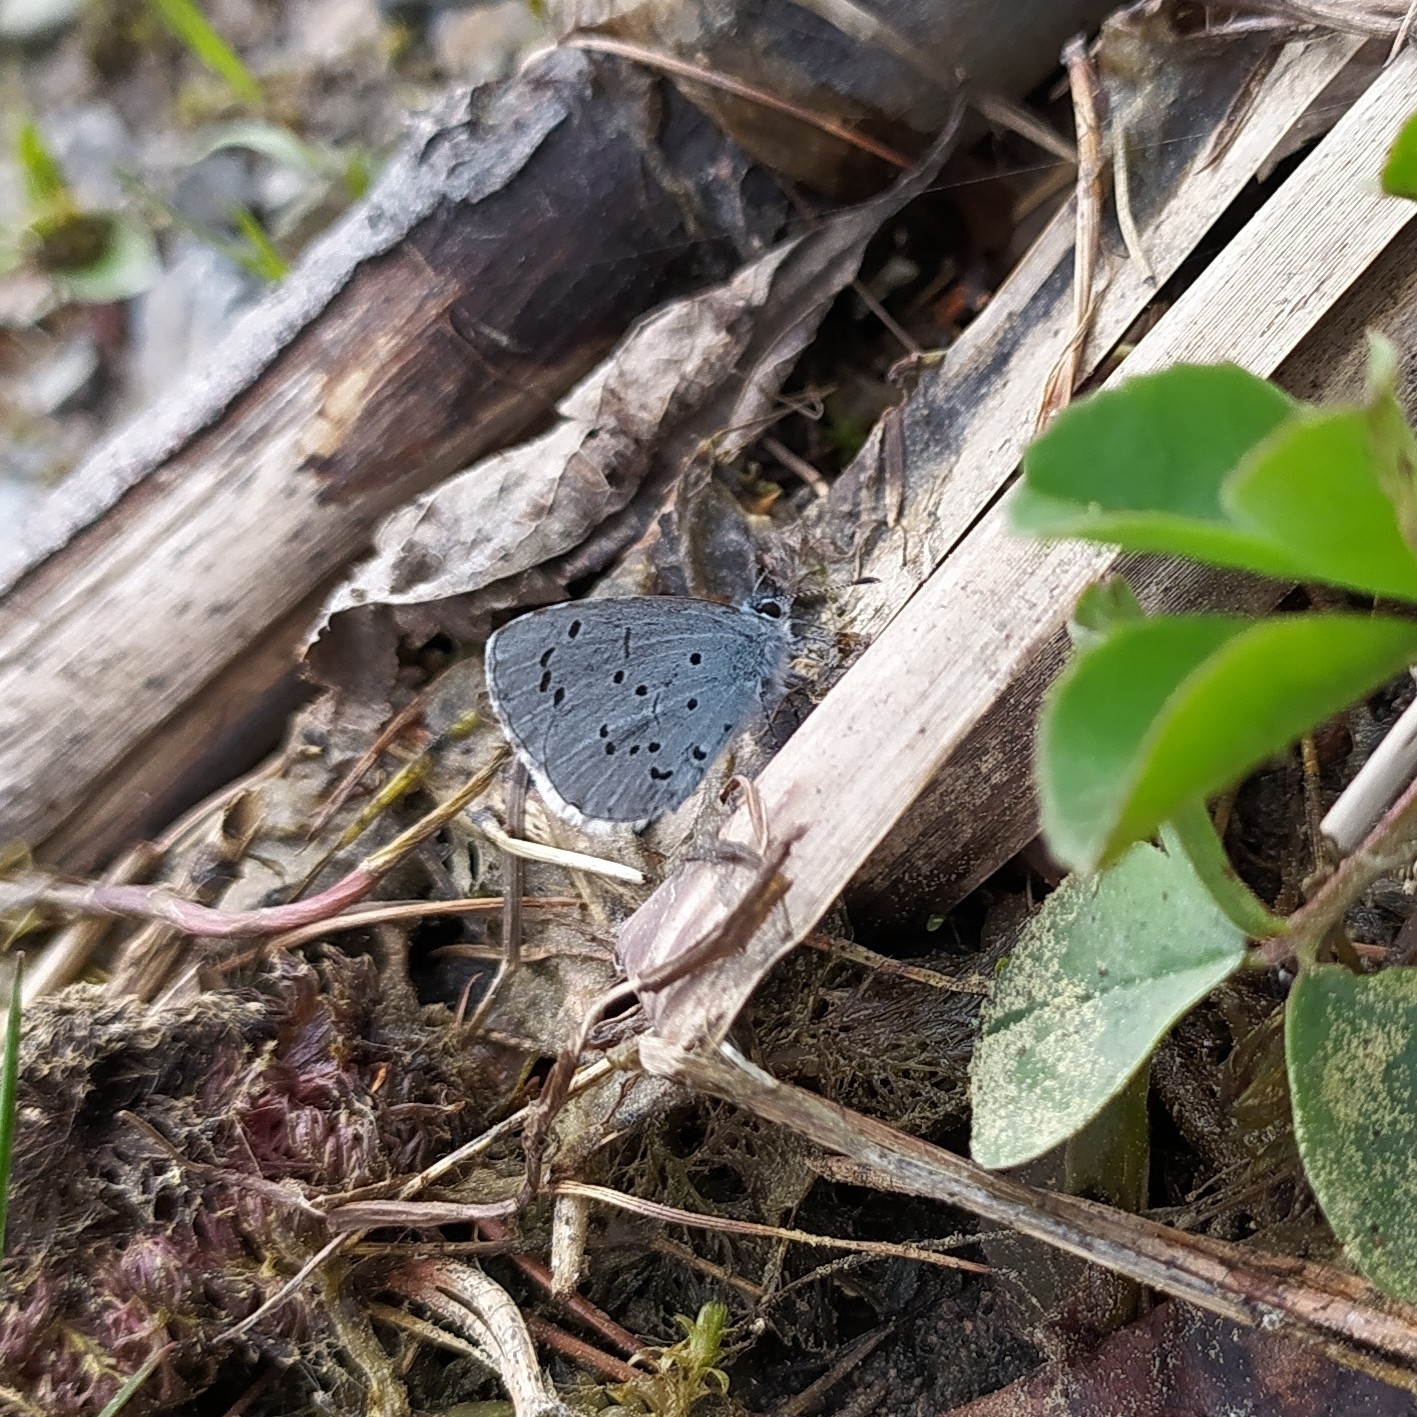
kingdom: Animalia
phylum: Arthropoda
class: Insecta
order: Lepidoptera
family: Lycaenidae
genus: Celastrina
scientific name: Celastrina argiolus
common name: Holly blue
